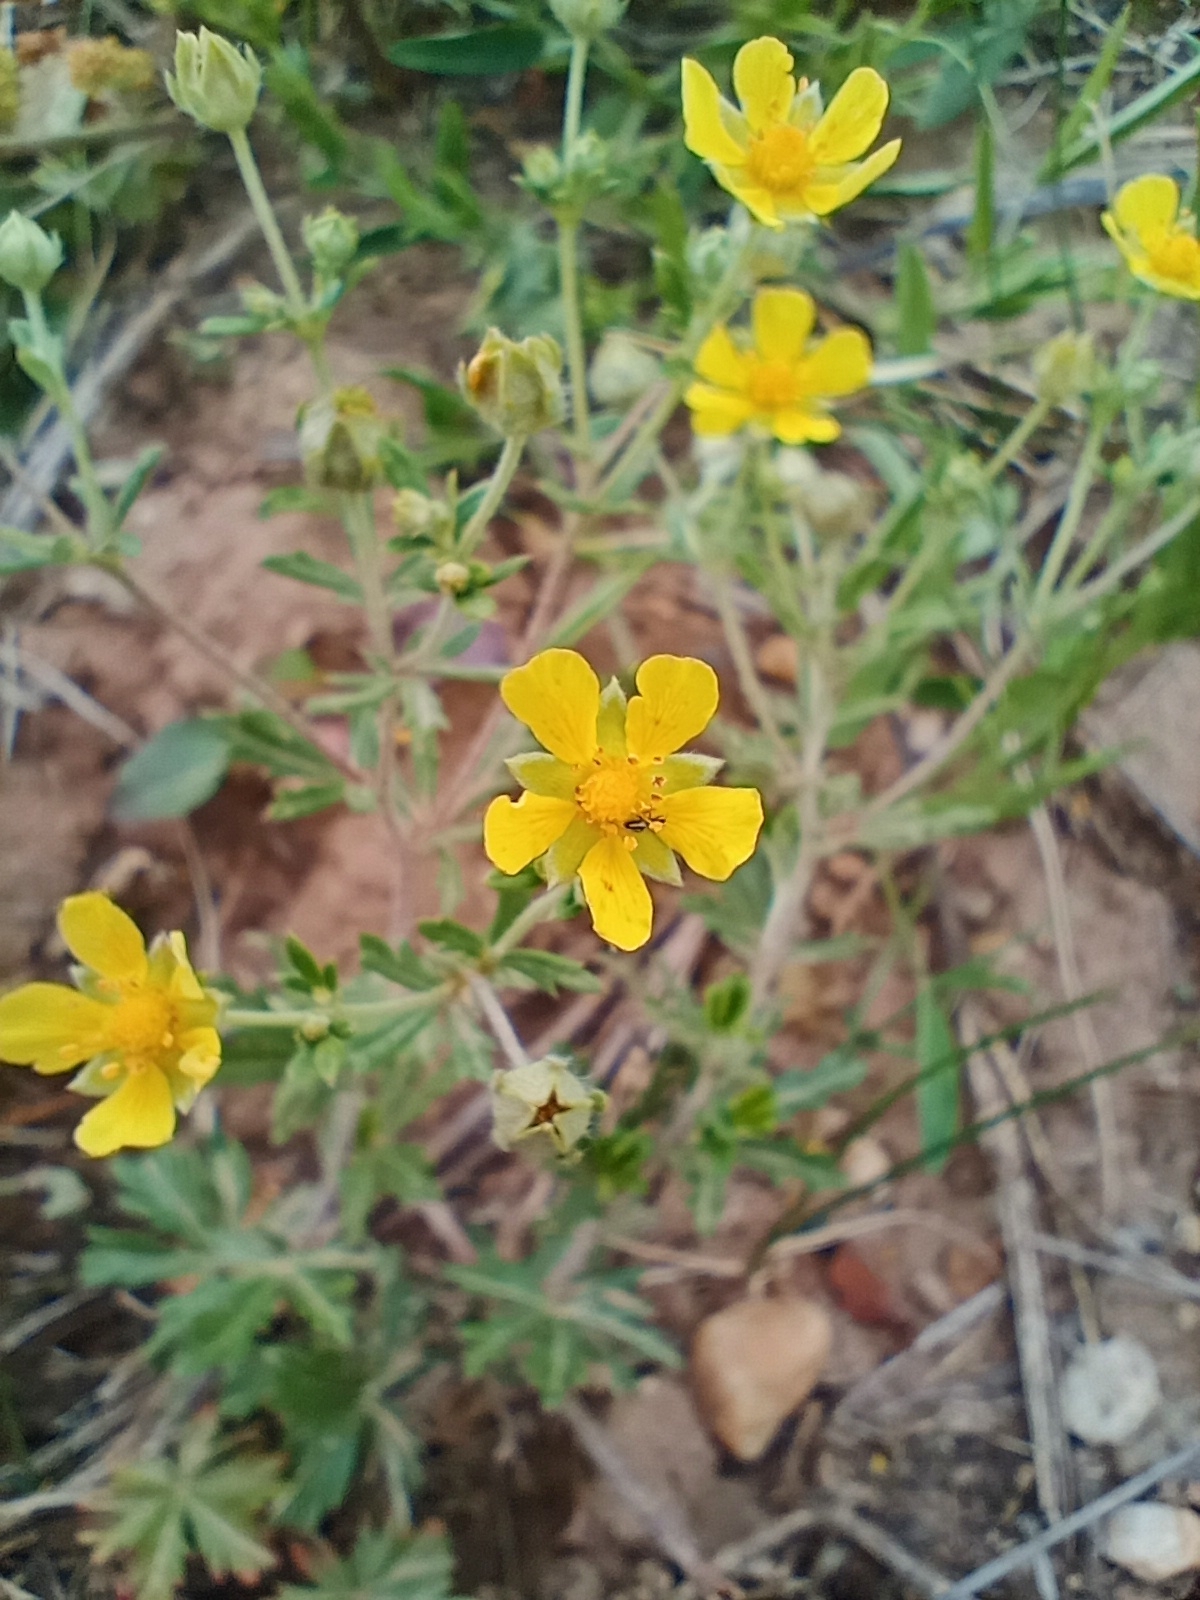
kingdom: Plantae
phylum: Tracheophyta
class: Magnoliopsida
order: Rosales
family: Rosaceae
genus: Potentilla
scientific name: Potentilla argentea
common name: Hoary cinquefoil
